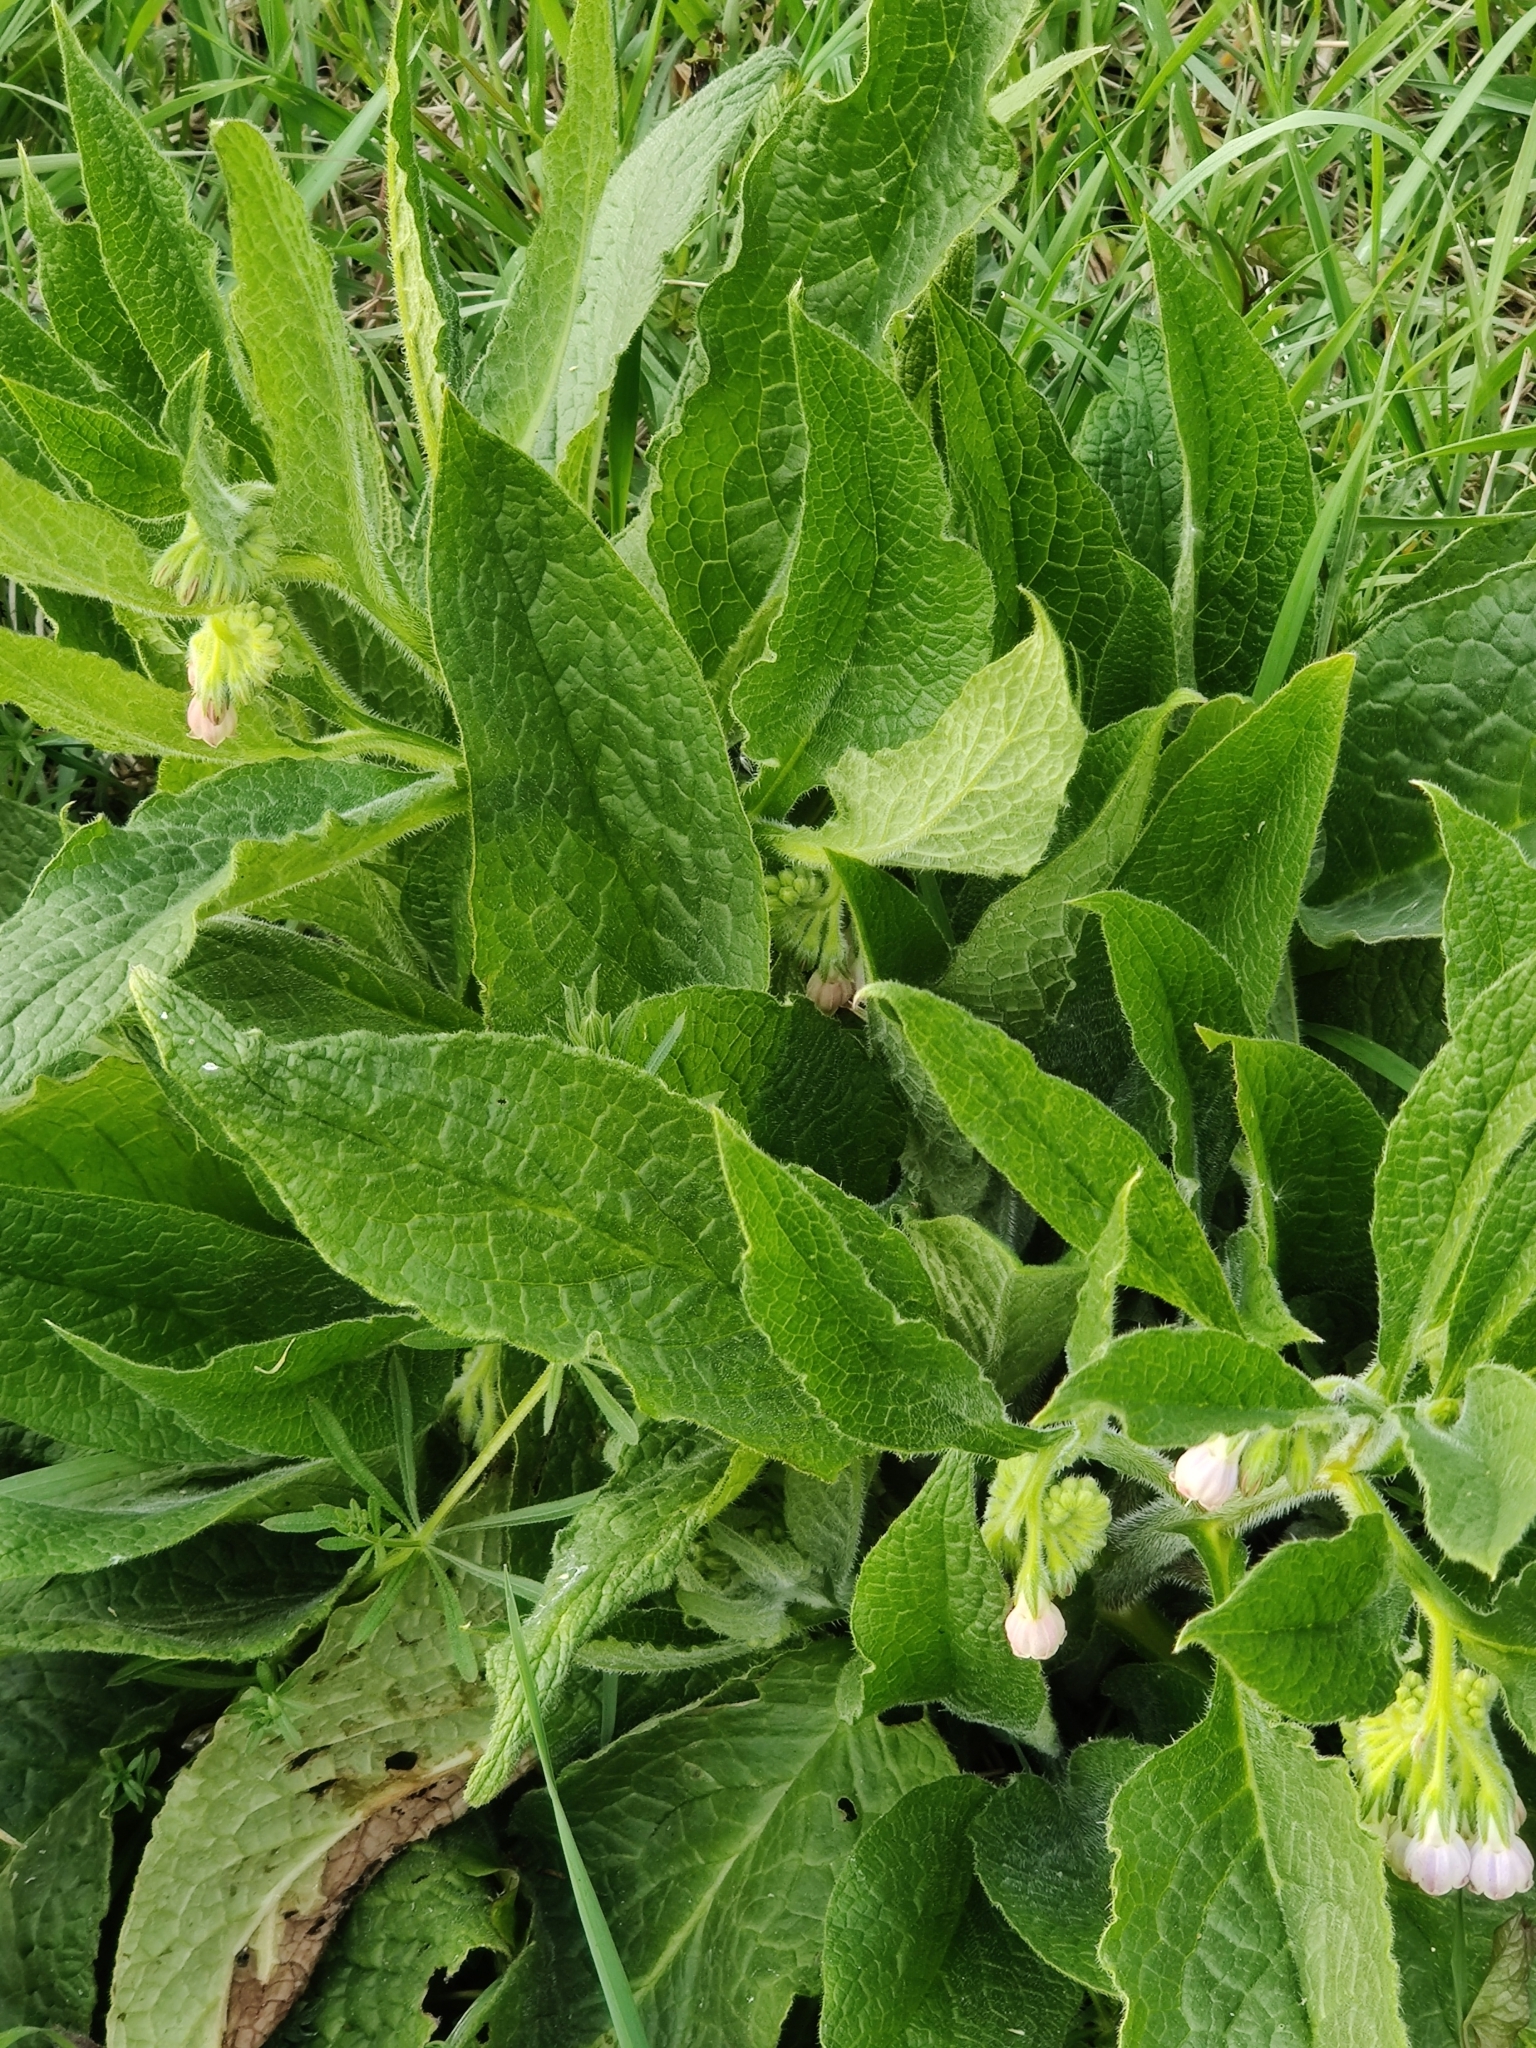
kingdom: Plantae
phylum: Tracheophyta
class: Magnoliopsida
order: Boraginales
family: Boraginaceae
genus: Symphytum
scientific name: Symphytum officinale
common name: Common comfrey
